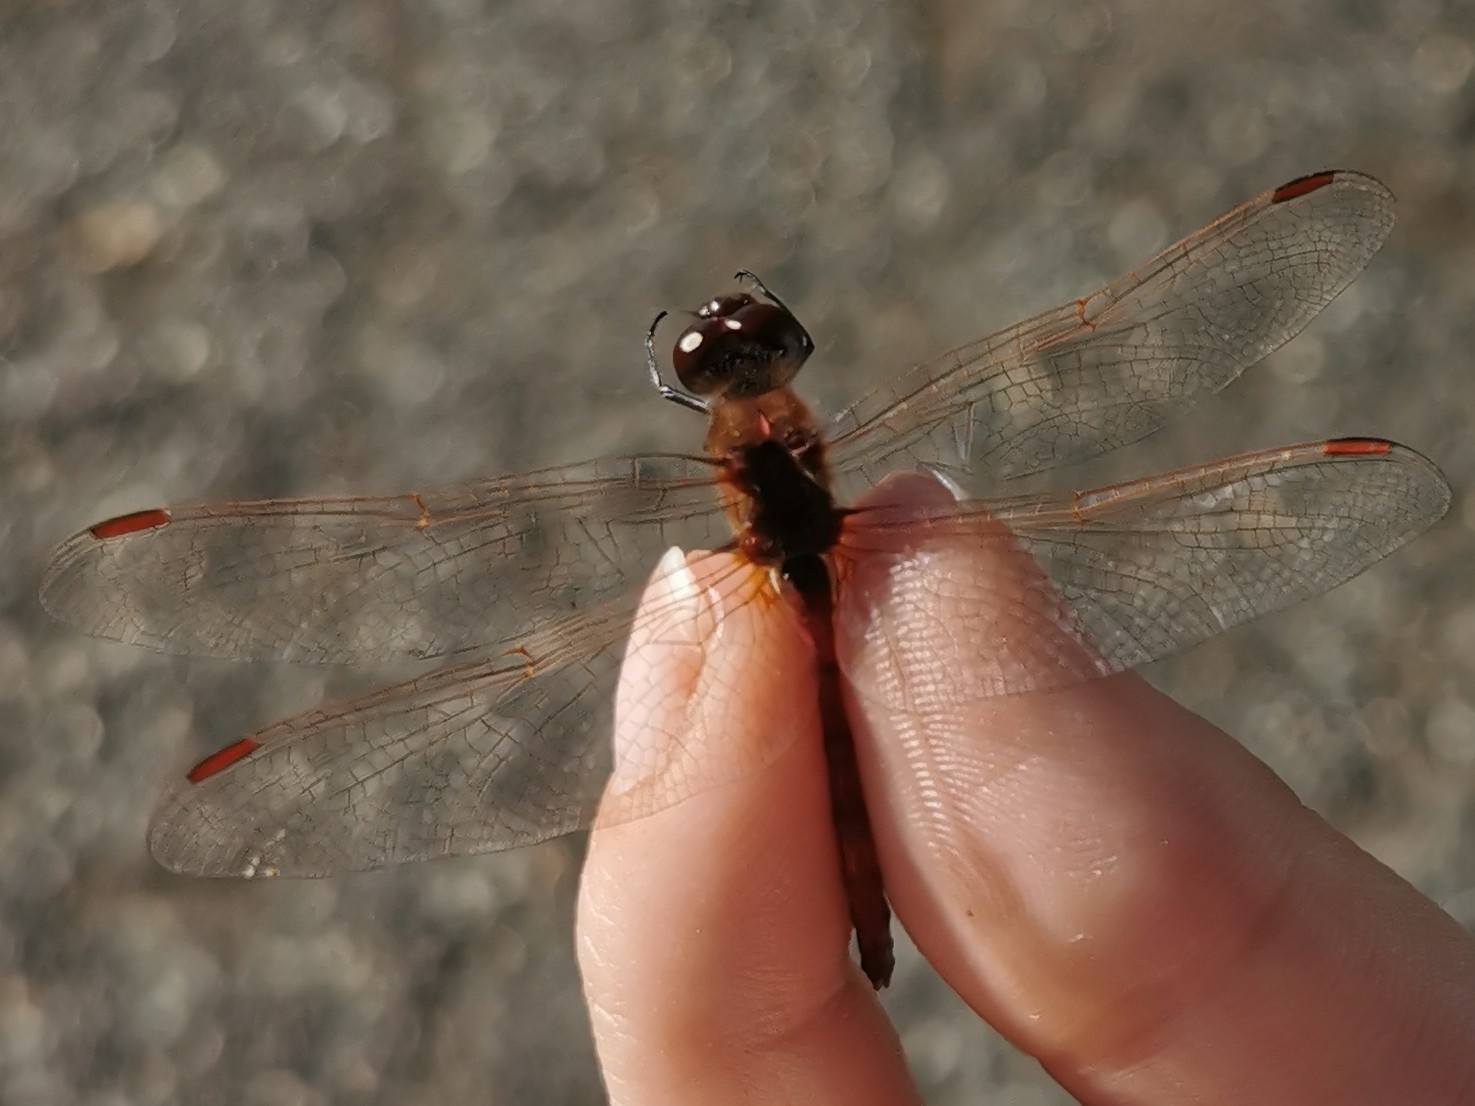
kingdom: Animalia
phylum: Arthropoda
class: Insecta
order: Odonata
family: Libellulidae
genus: Sympetrum
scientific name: Sympetrum costiferum
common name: Saffron-winged meadowhawk
